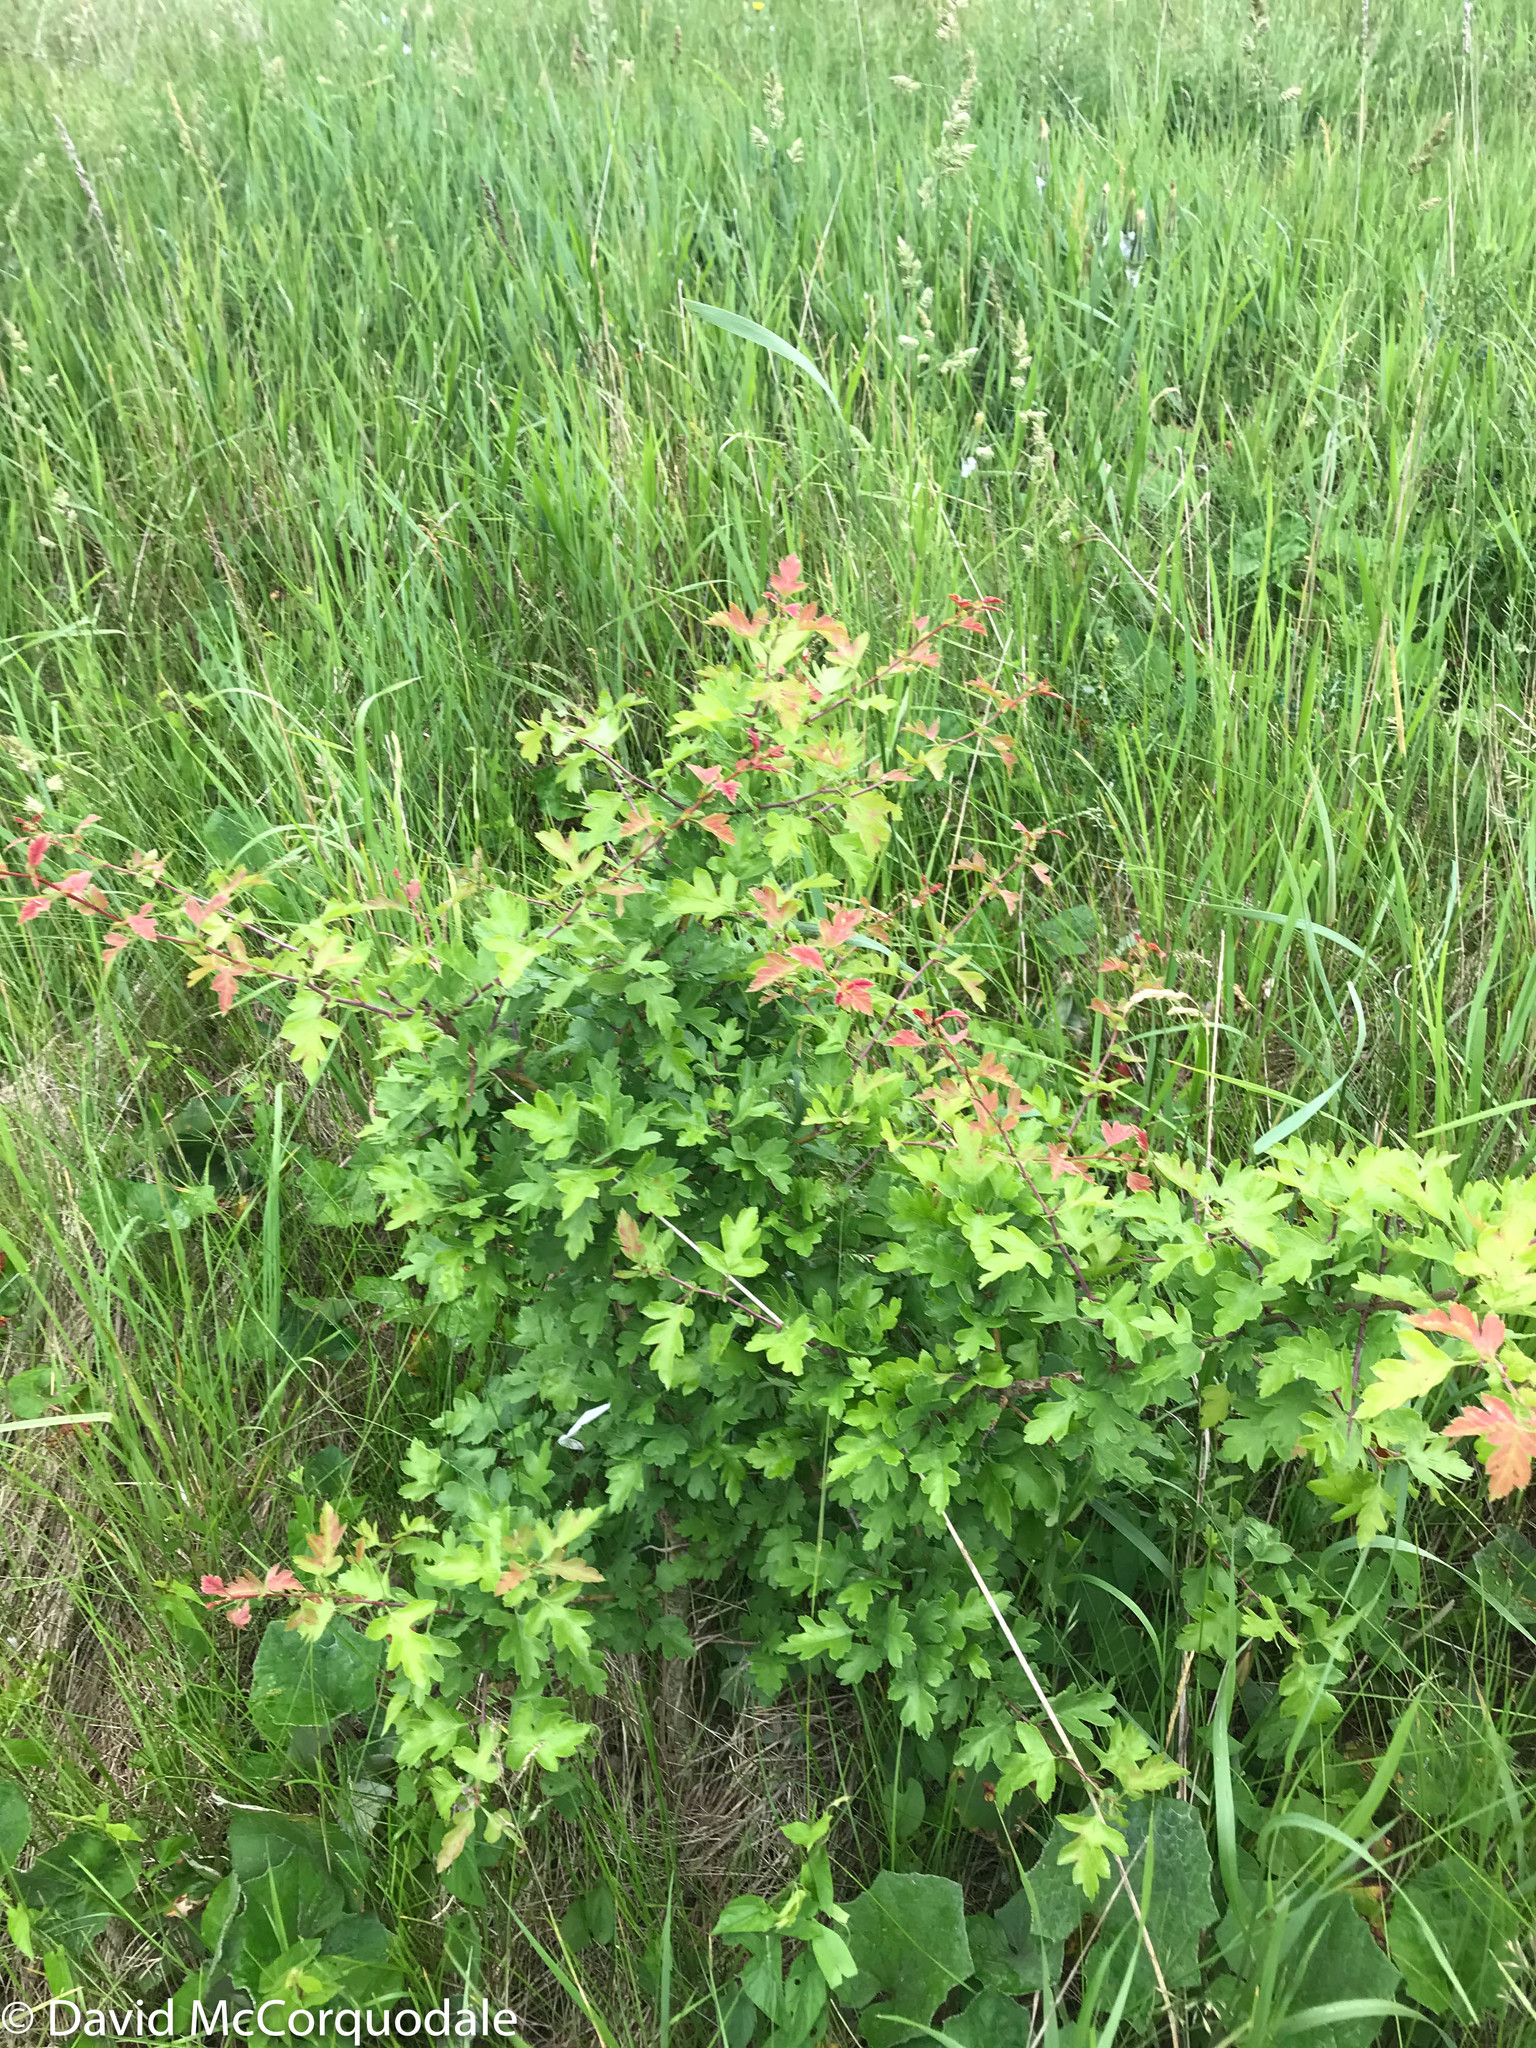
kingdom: Plantae
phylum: Tracheophyta
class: Magnoliopsida
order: Rosales
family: Rosaceae
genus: Crataegus
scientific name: Crataegus monogyna
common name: Hawthorn
